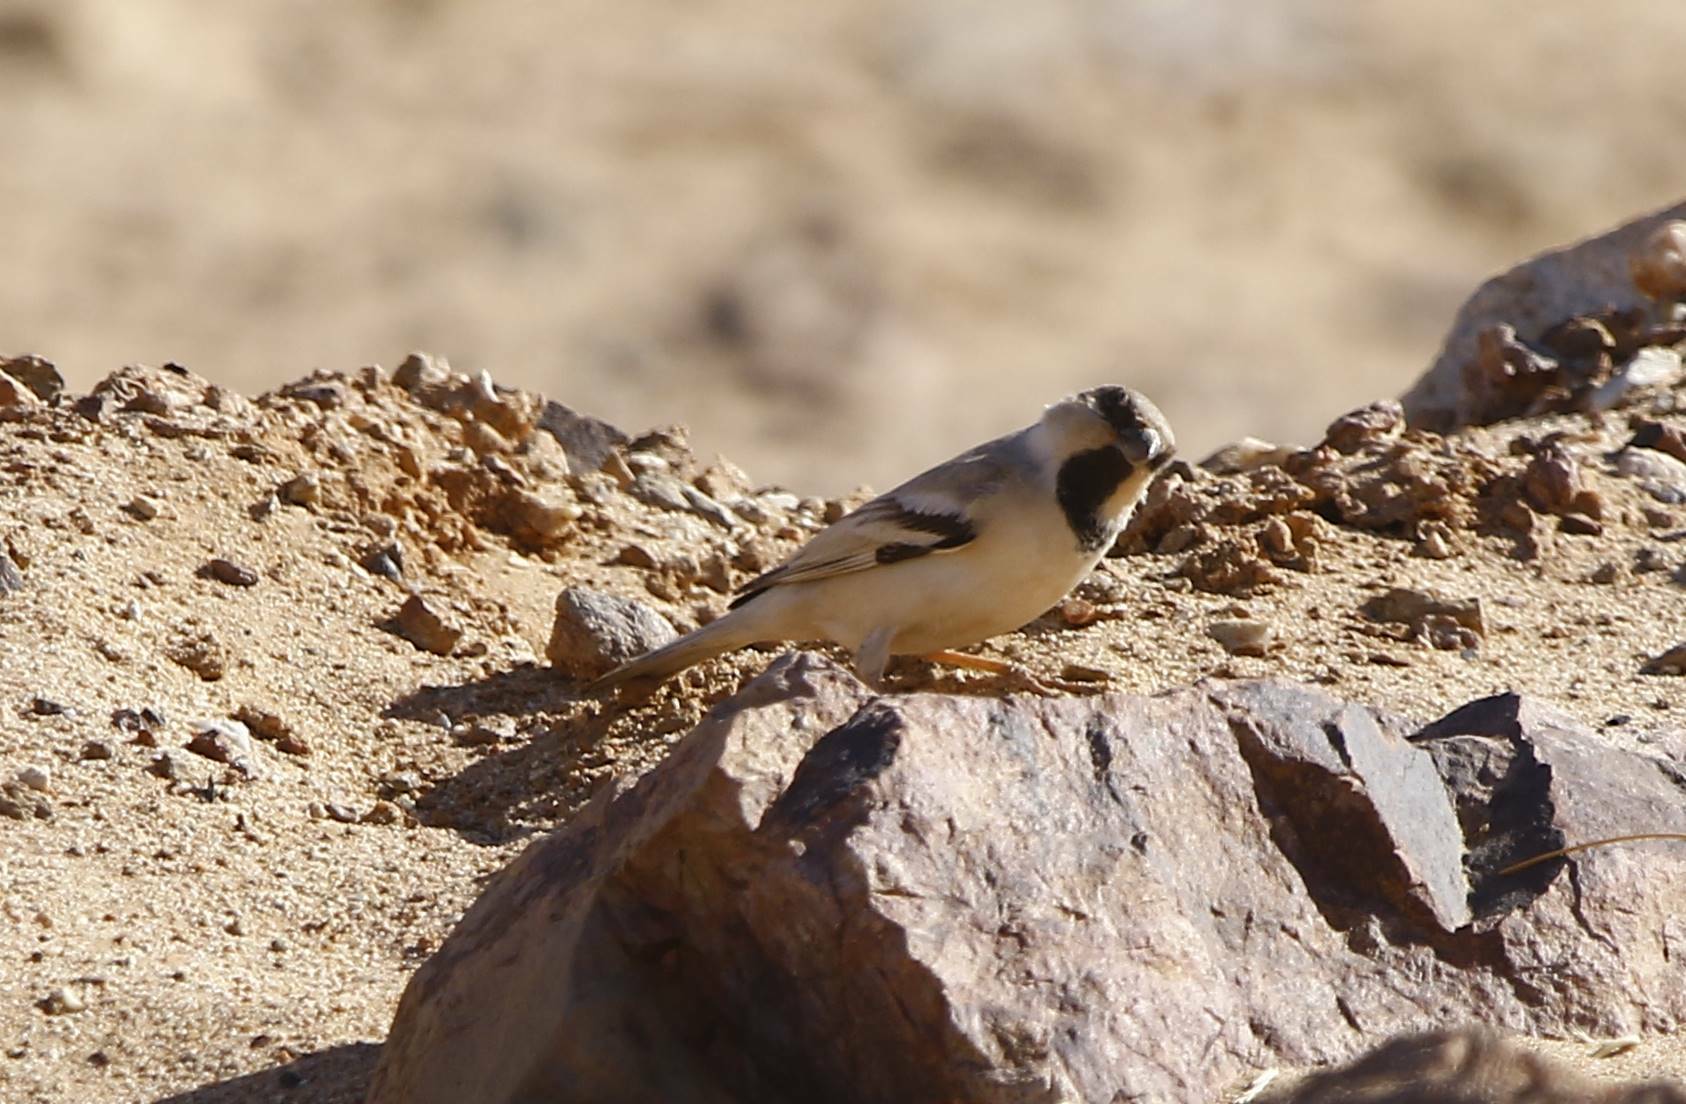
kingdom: Animalia
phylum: Chordata
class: Aves
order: Passeriformes
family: Passeridae
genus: Passer
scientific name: Passer simplex
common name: Desert sparrow
